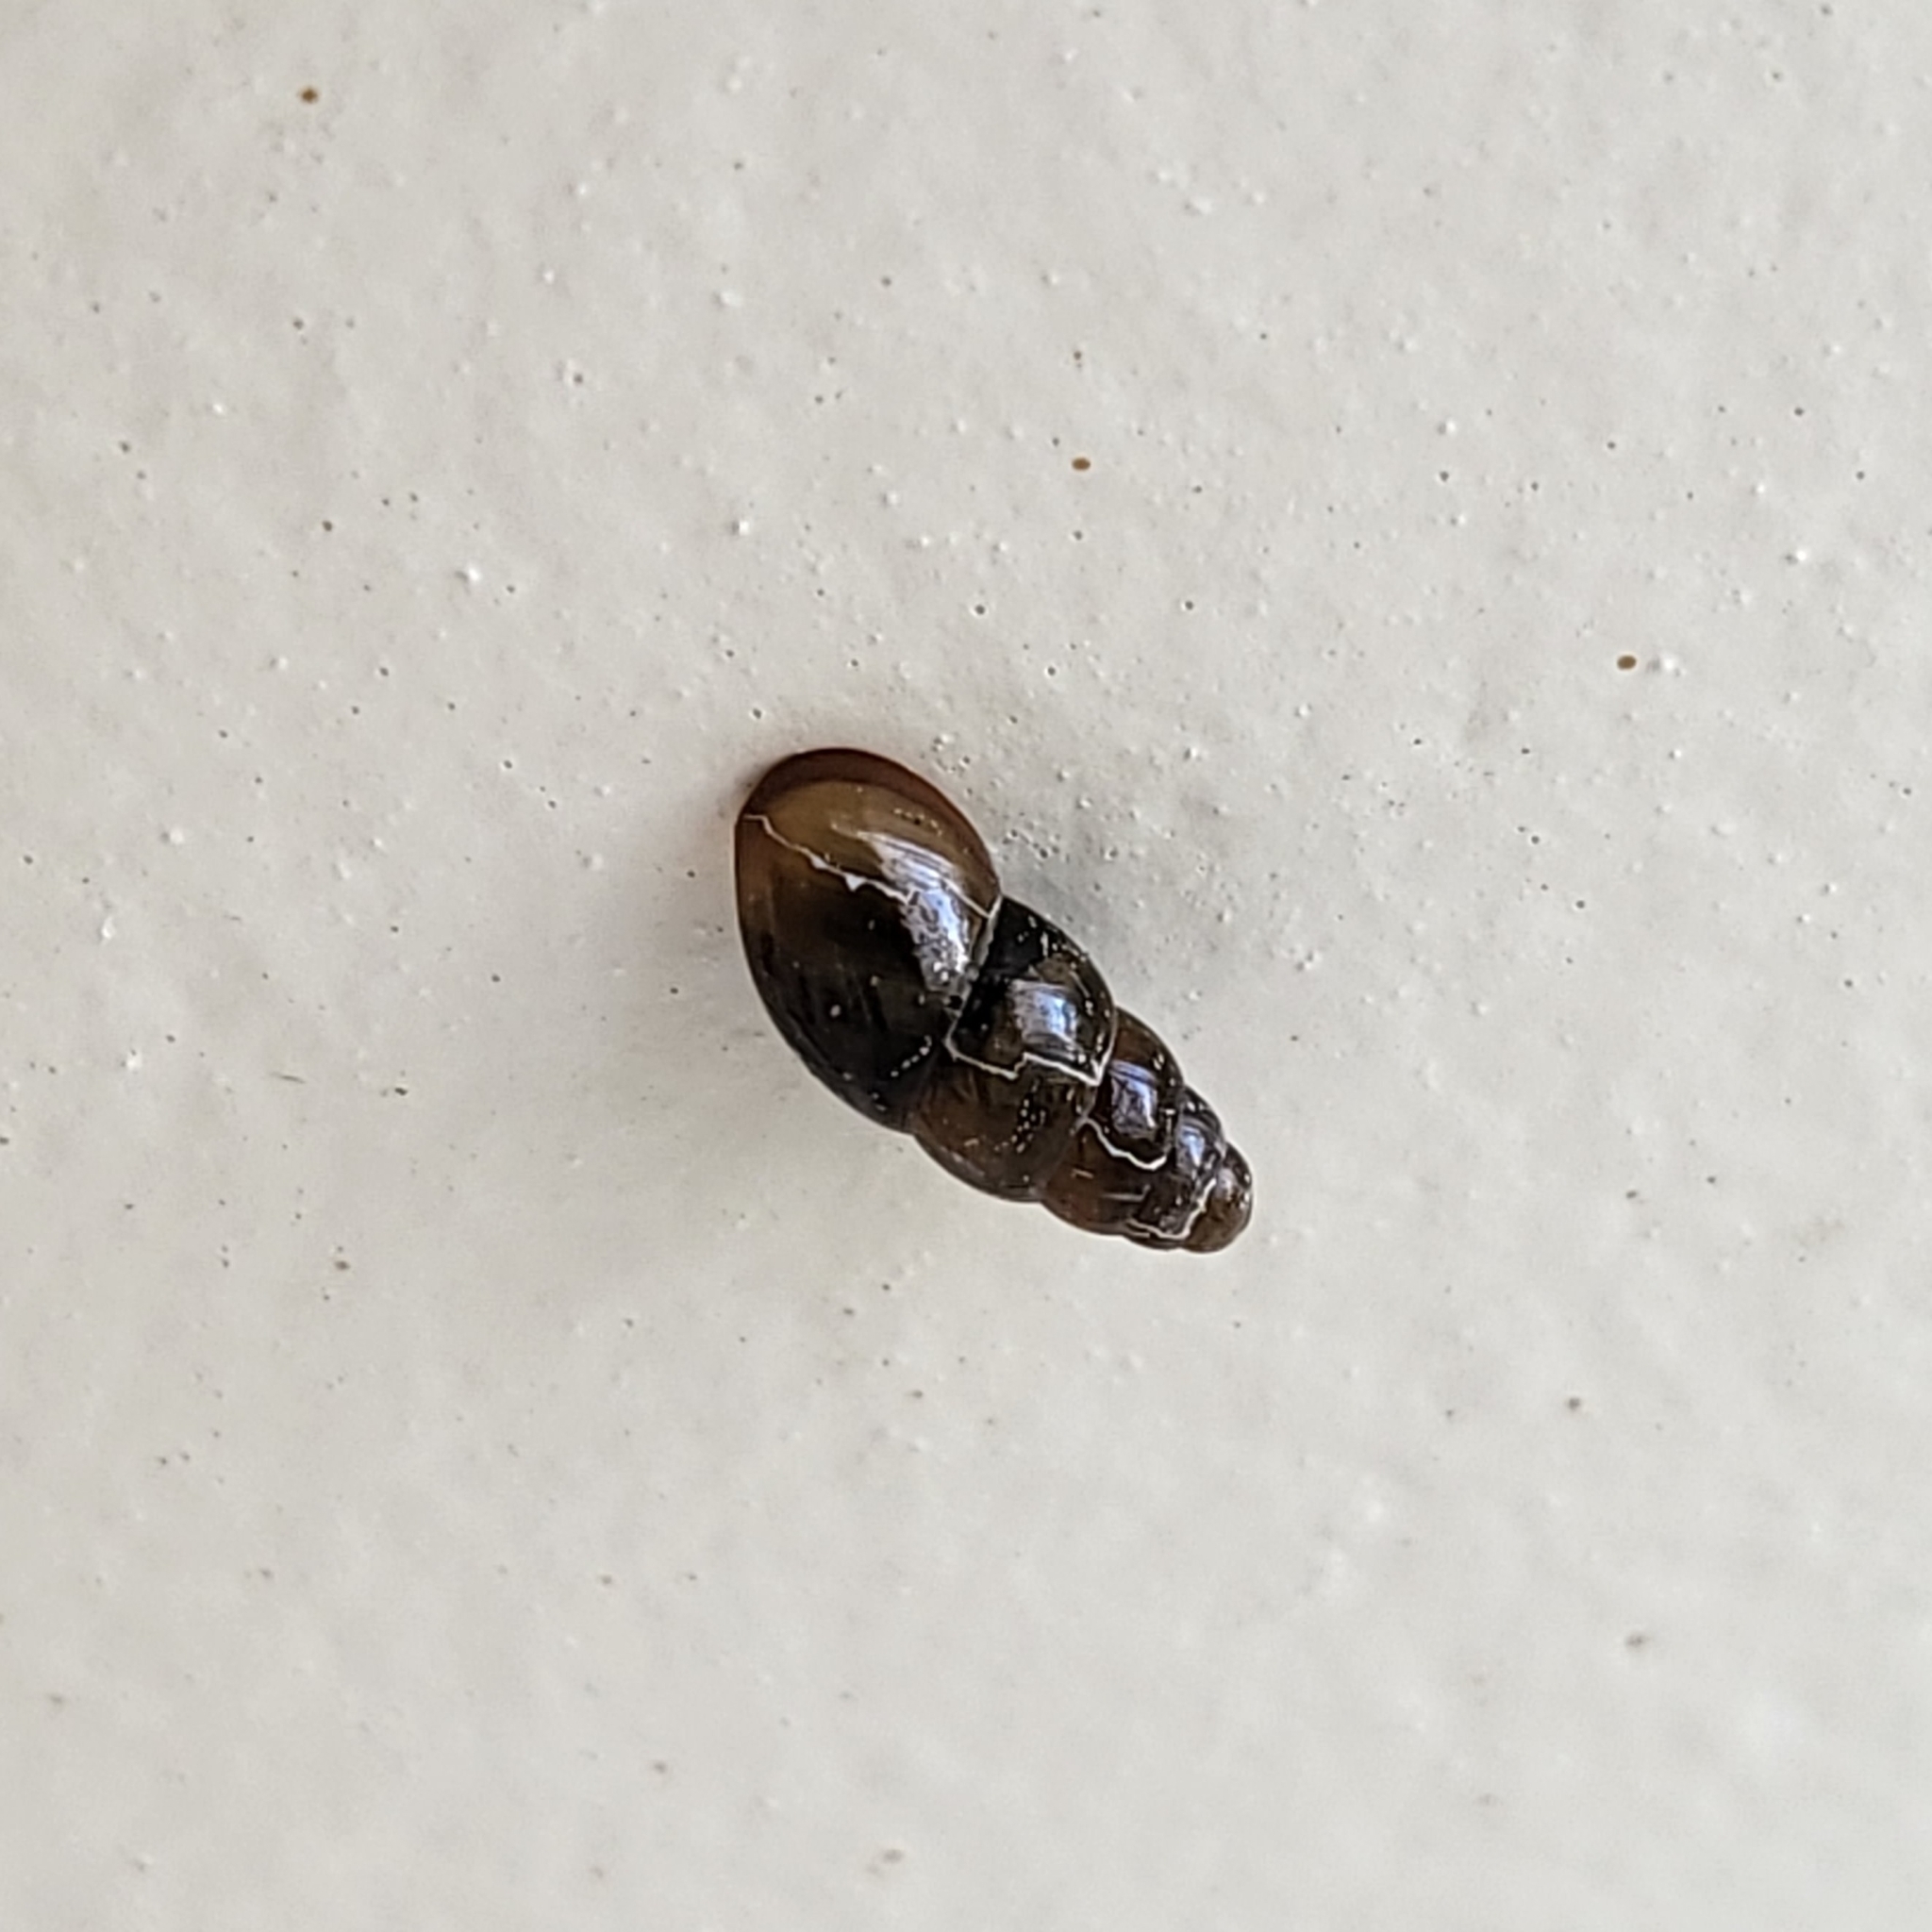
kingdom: Animalia
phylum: Mollusca
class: Gastropoda
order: Stylommatophora
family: Cochlicopidae
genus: Cochlicopa
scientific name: Cochlicopa lubrica
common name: Glossy pillar snail
